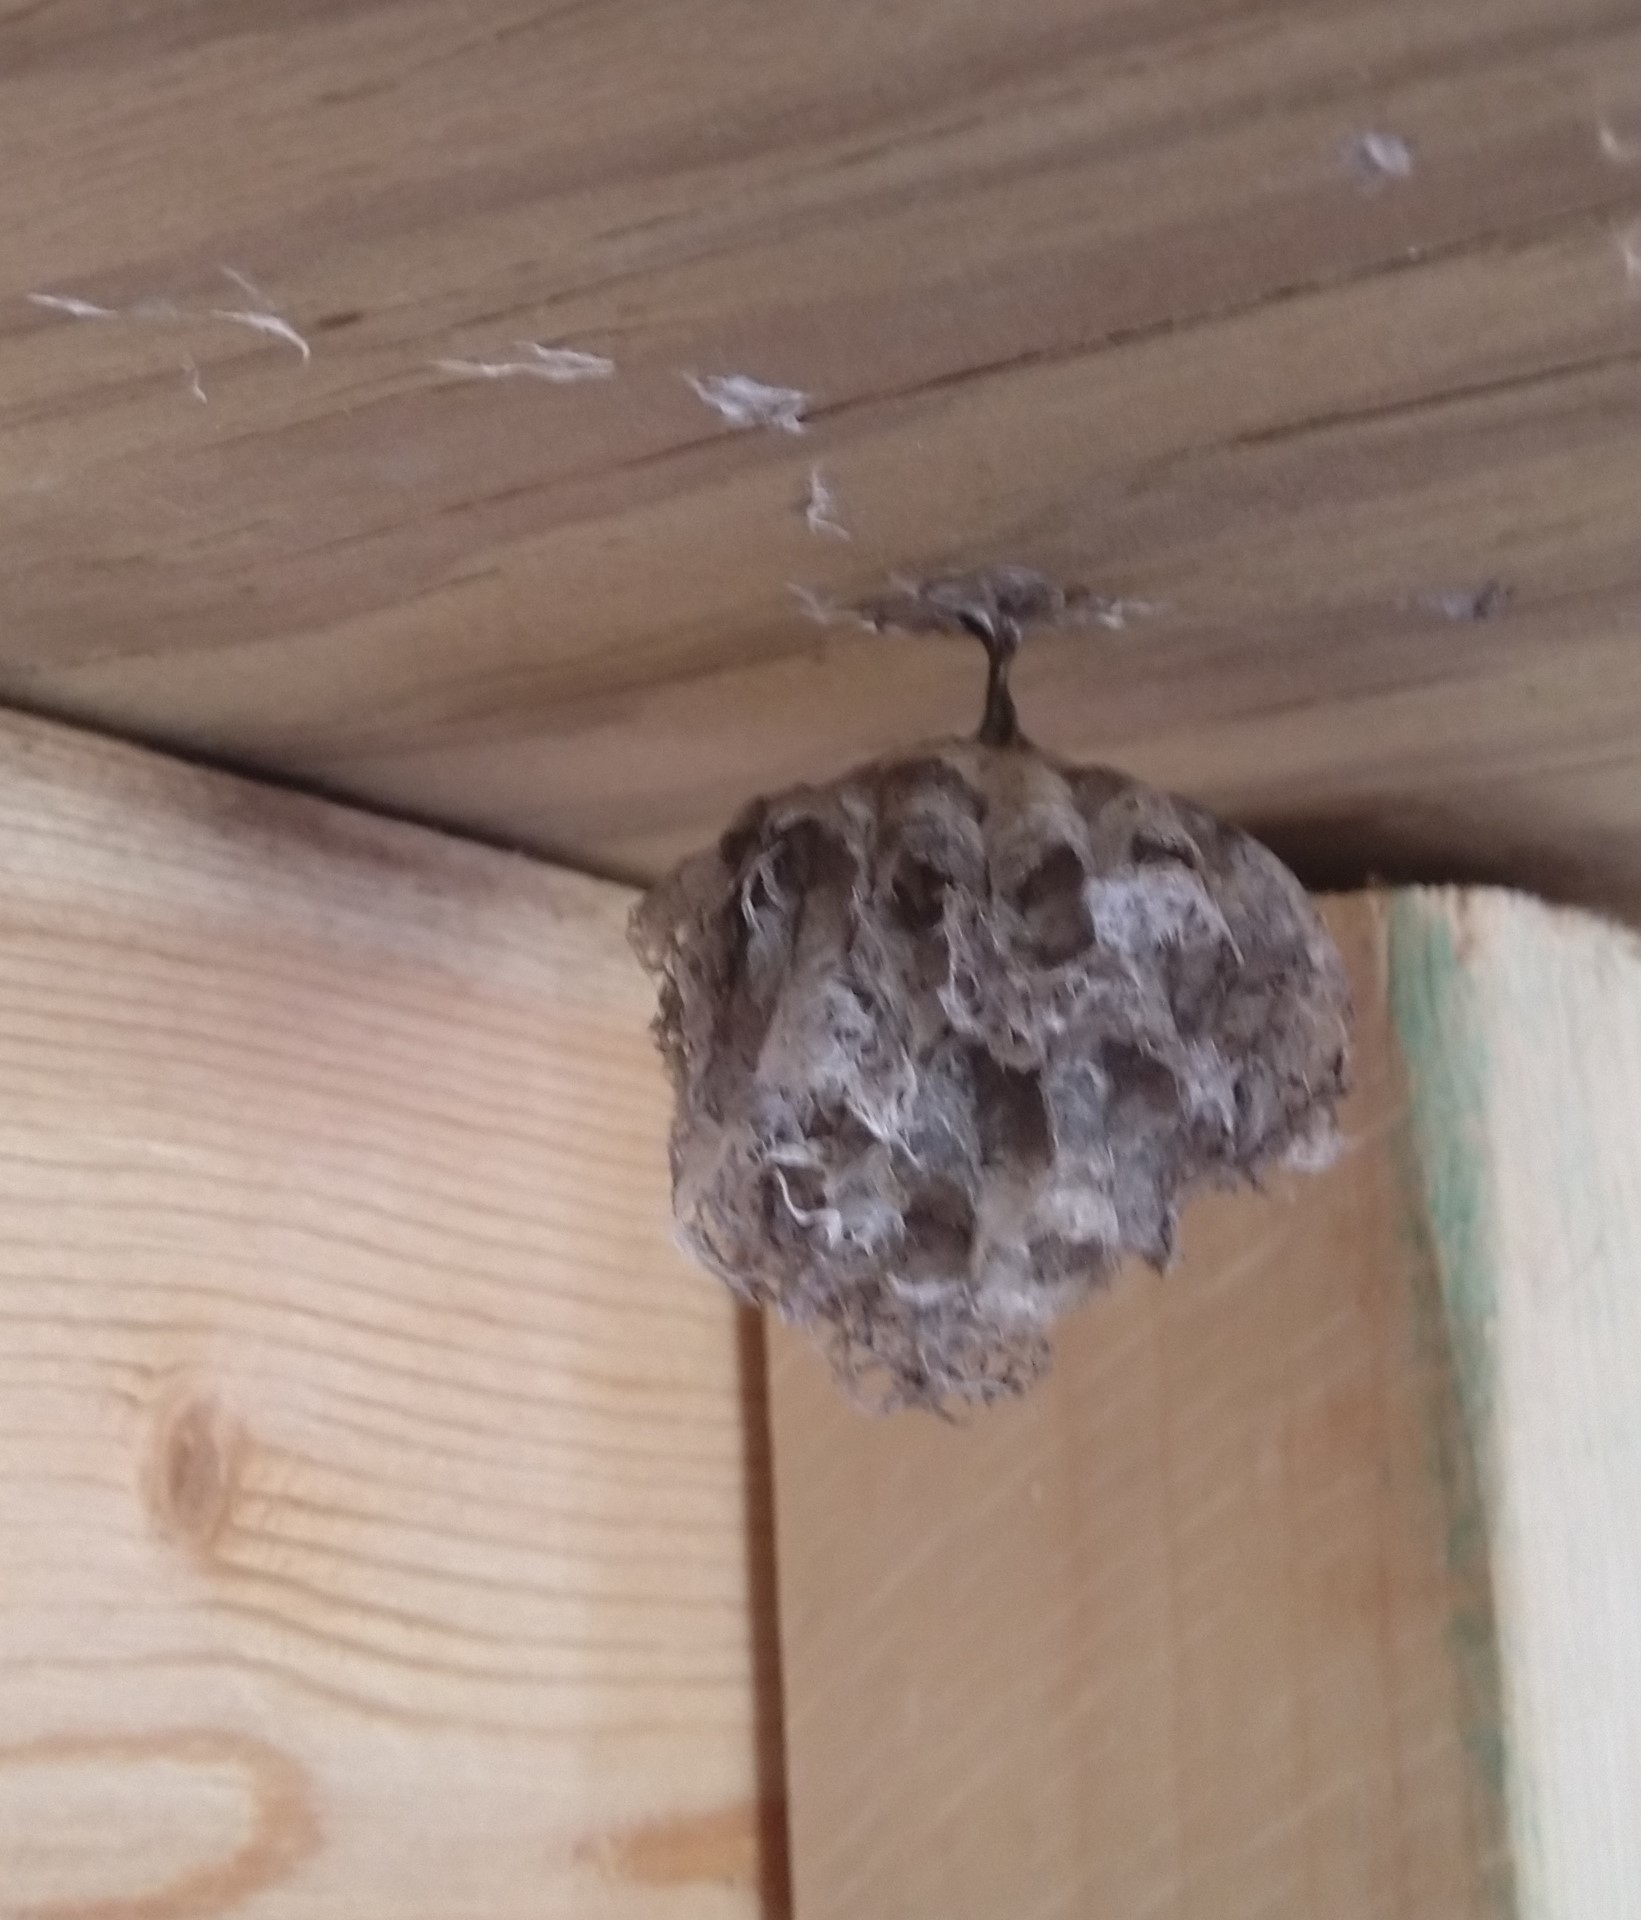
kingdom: Animalia
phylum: Arthropoda
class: Insecta
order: Hymenoptera
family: Eumenidae
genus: Polistes
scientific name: Polistes
